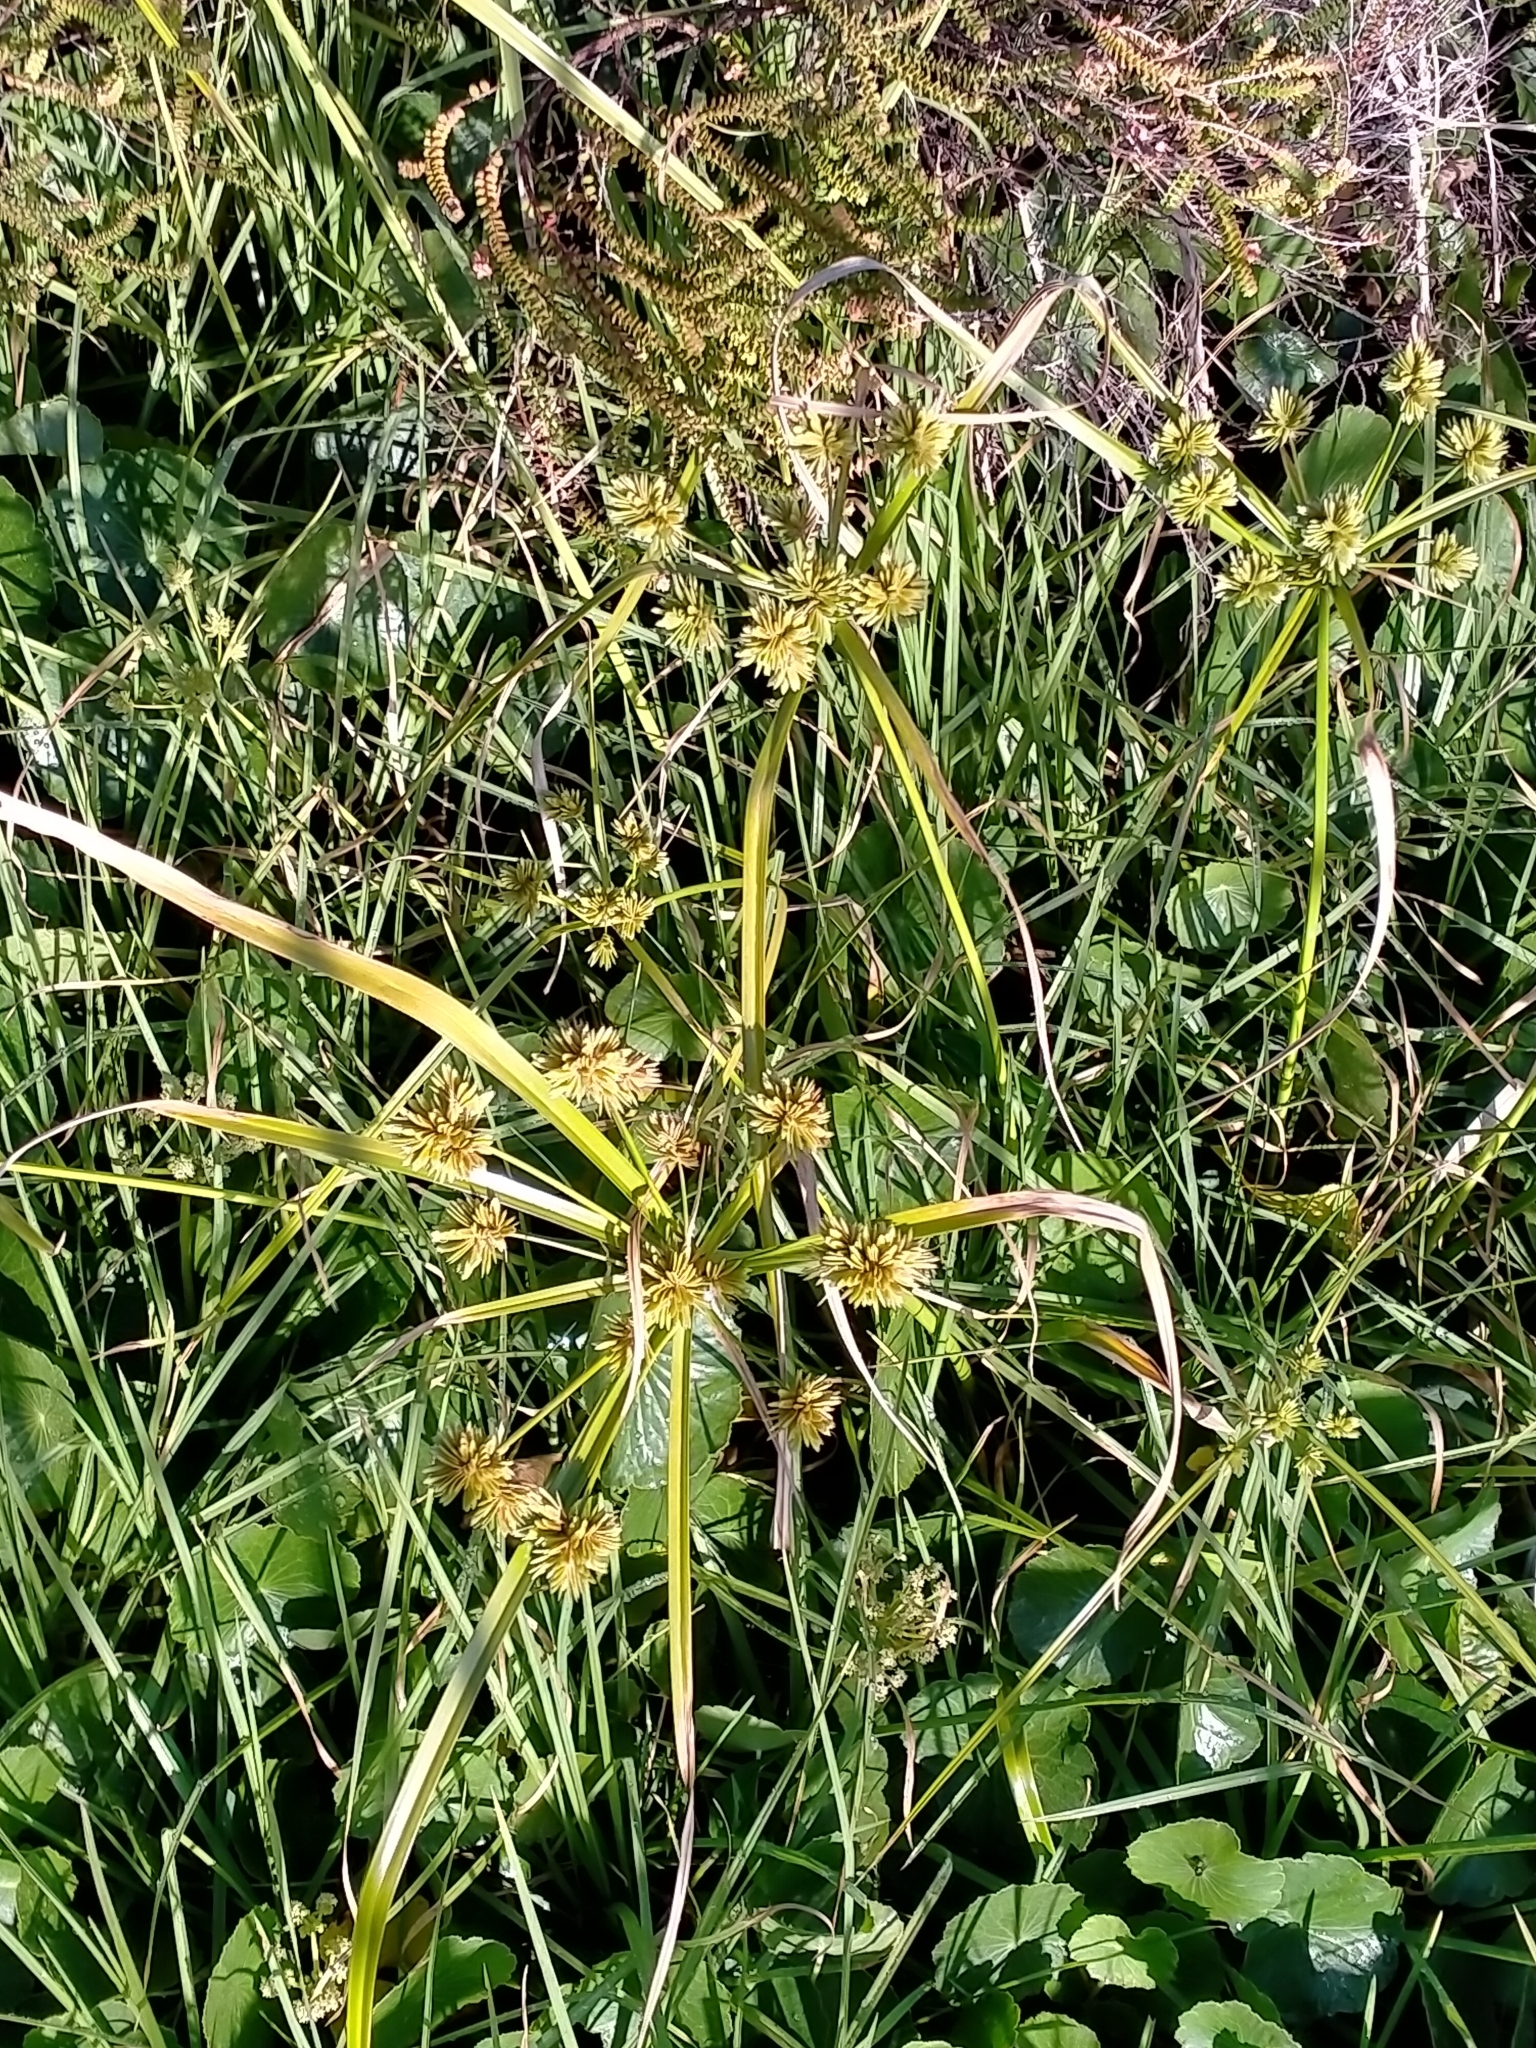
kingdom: Plantae
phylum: Tracheophyta
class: Liliopsida
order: Poales
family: Cyperaceae
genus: Cyperus
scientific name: Cyperus eragrostis
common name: Tall flatsedge
